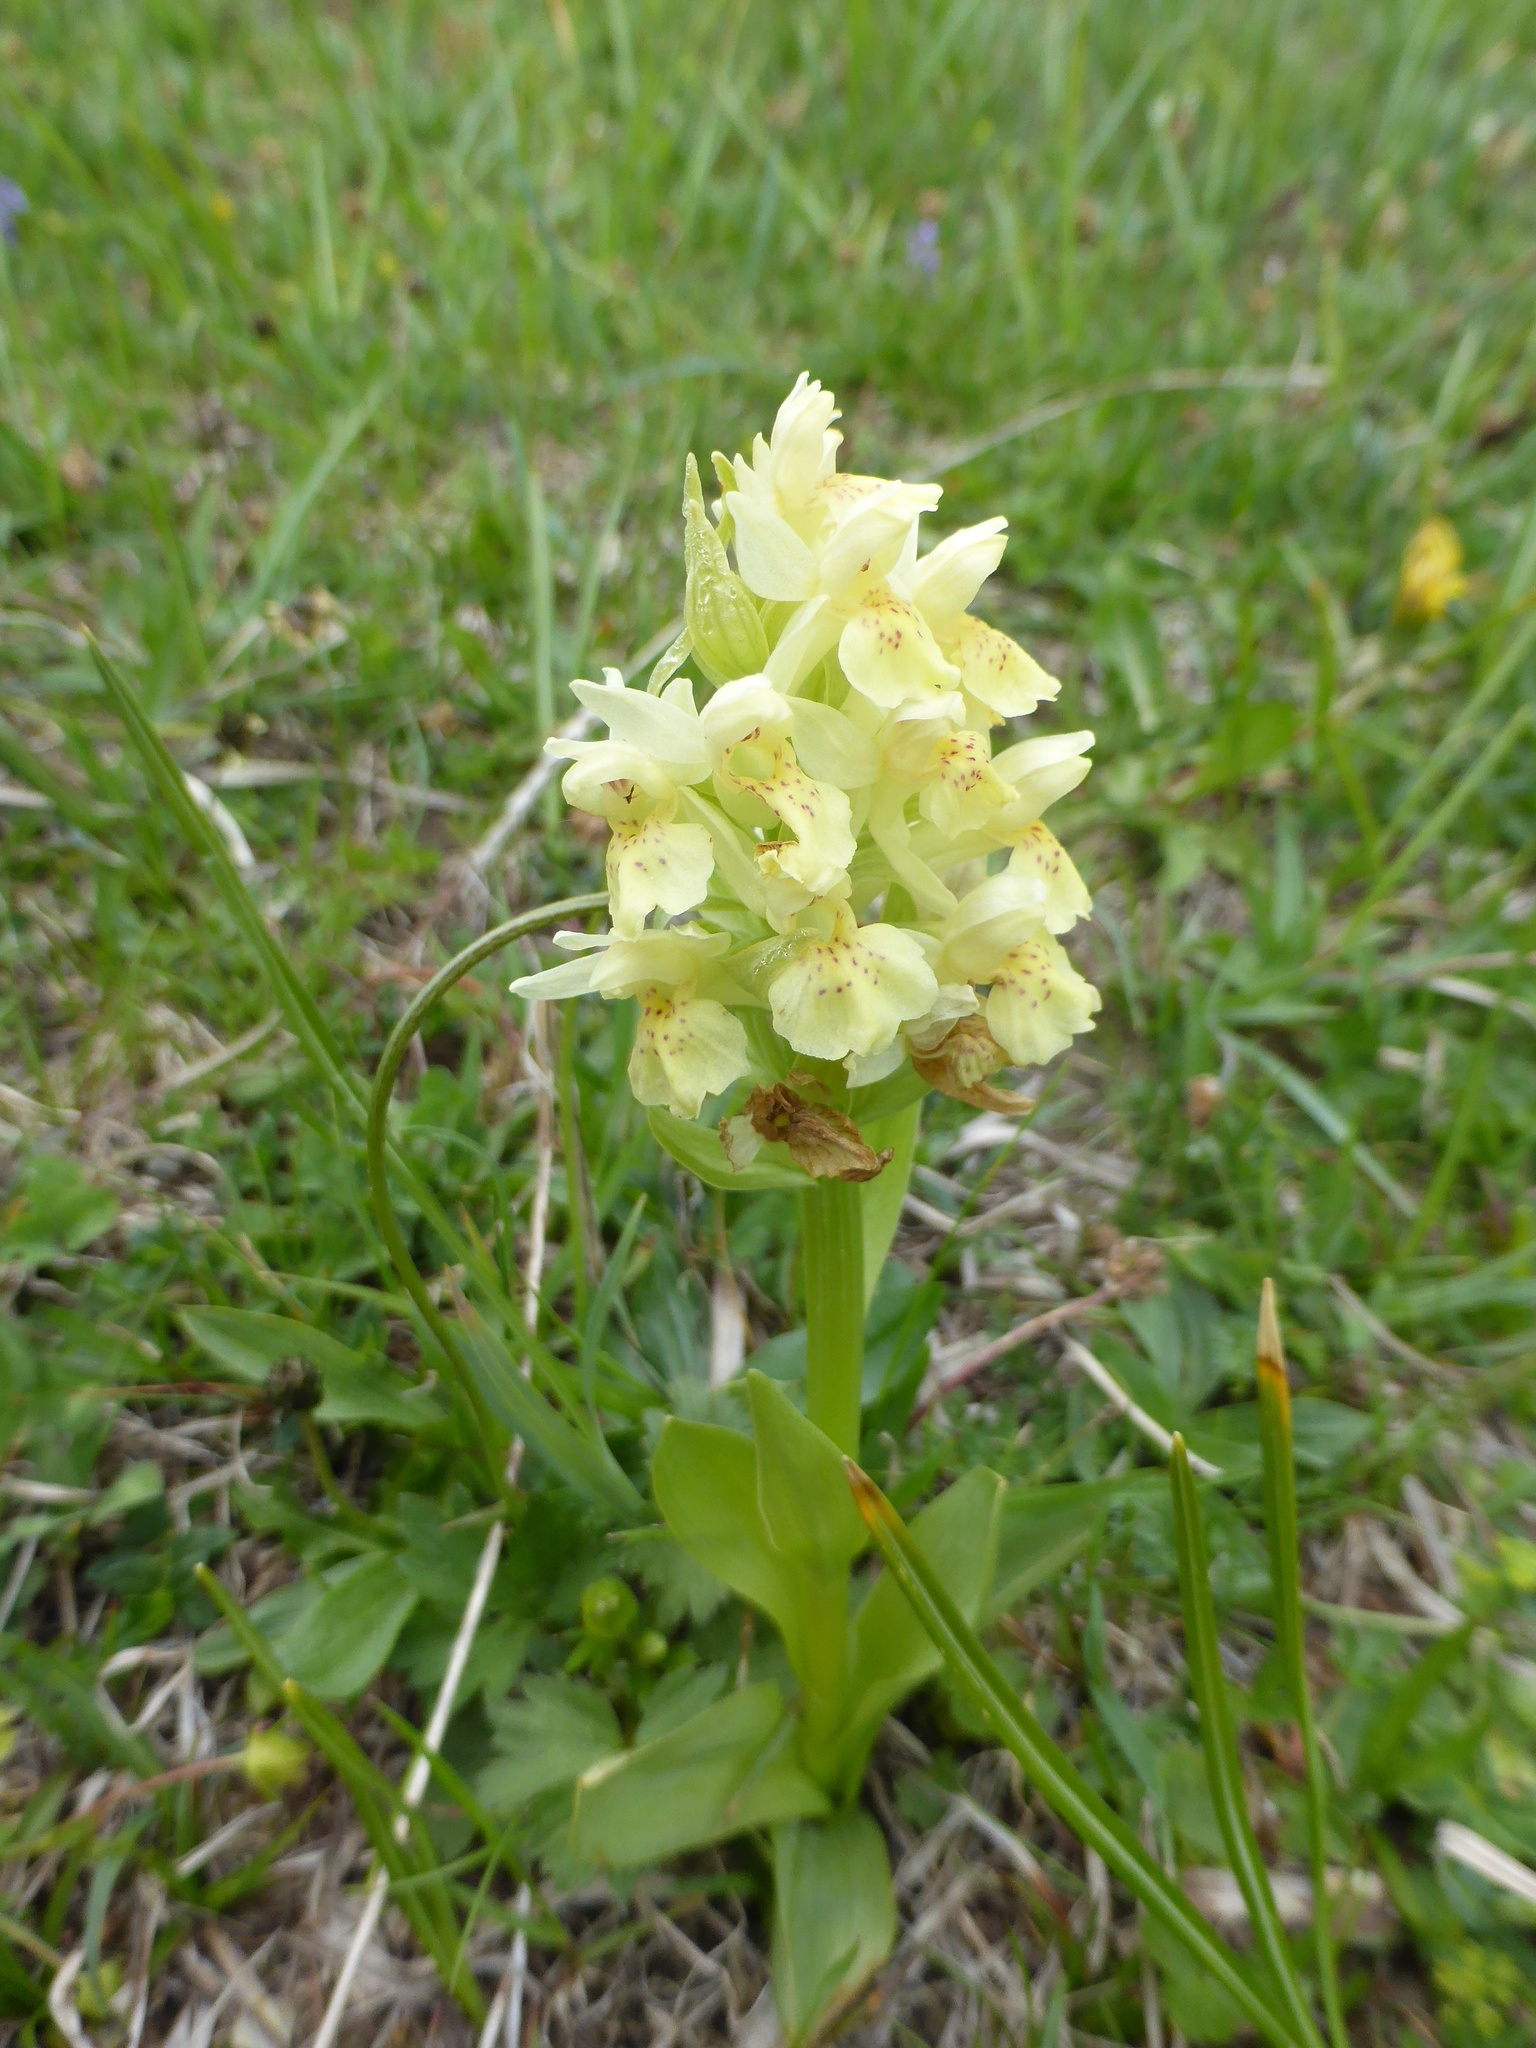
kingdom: Plantae
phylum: Tracheophyta
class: Liliopsida
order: Asparagales
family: Orchidaceae
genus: Dactylorhiza
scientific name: Dactylorhiza sambucina
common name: Elder-flowered orchid
